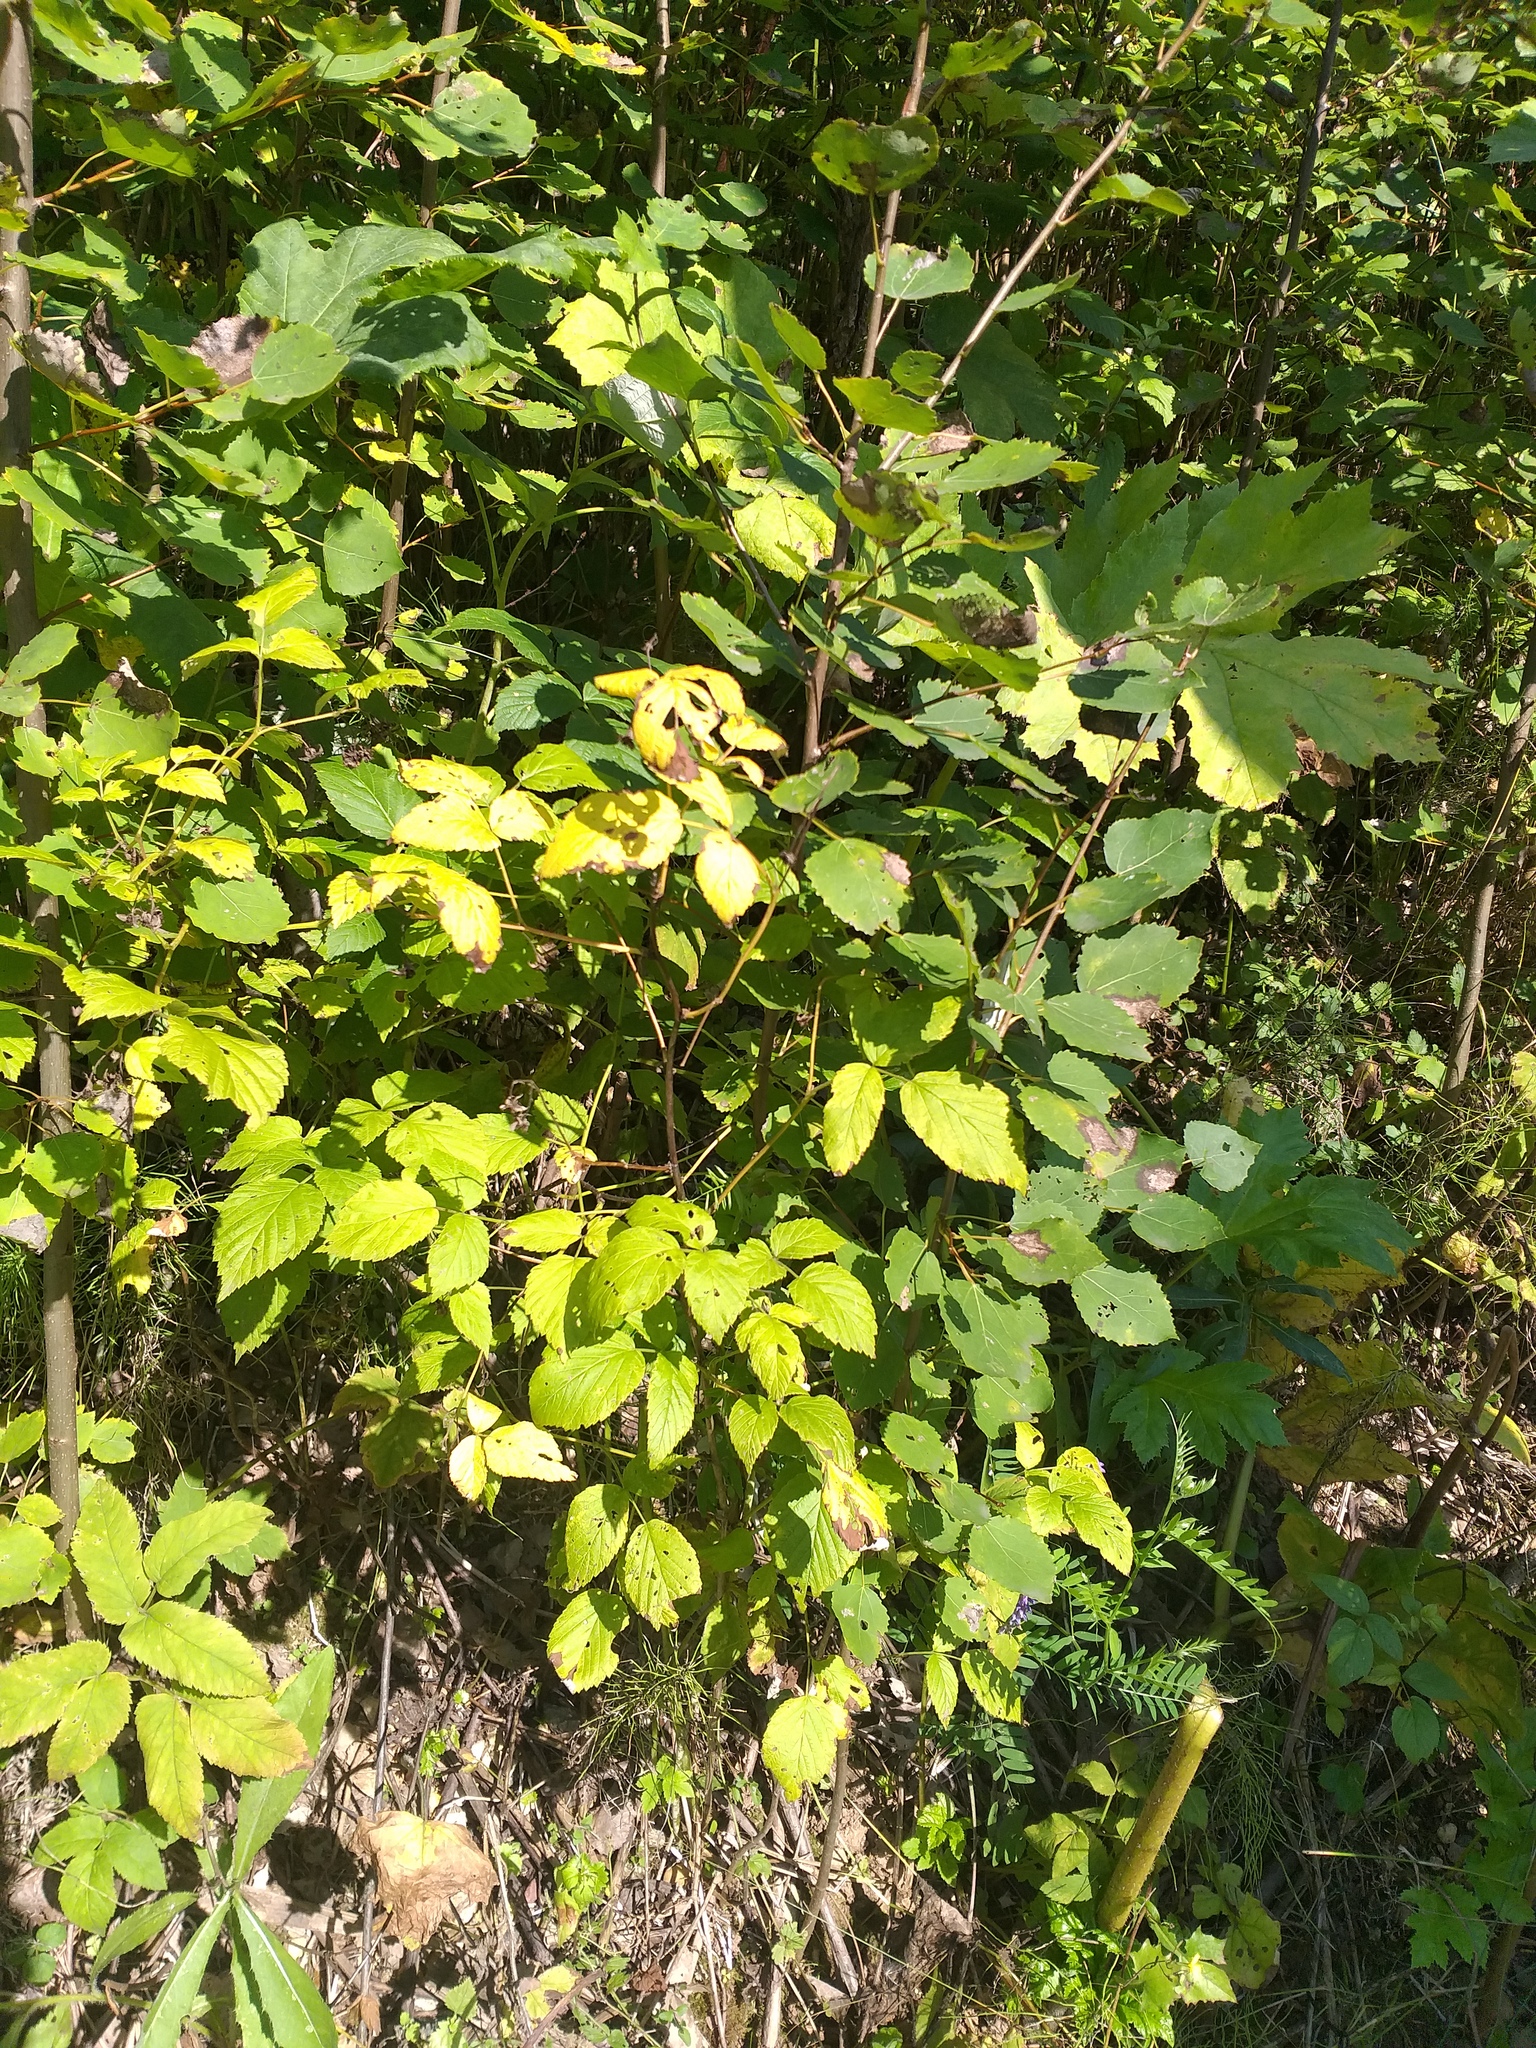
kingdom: Plantae
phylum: Tracheophyta
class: Magnoliopsida
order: Rosales
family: Rosaceae
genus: Rubus
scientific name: Rubus idaeus
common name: Raspberry
